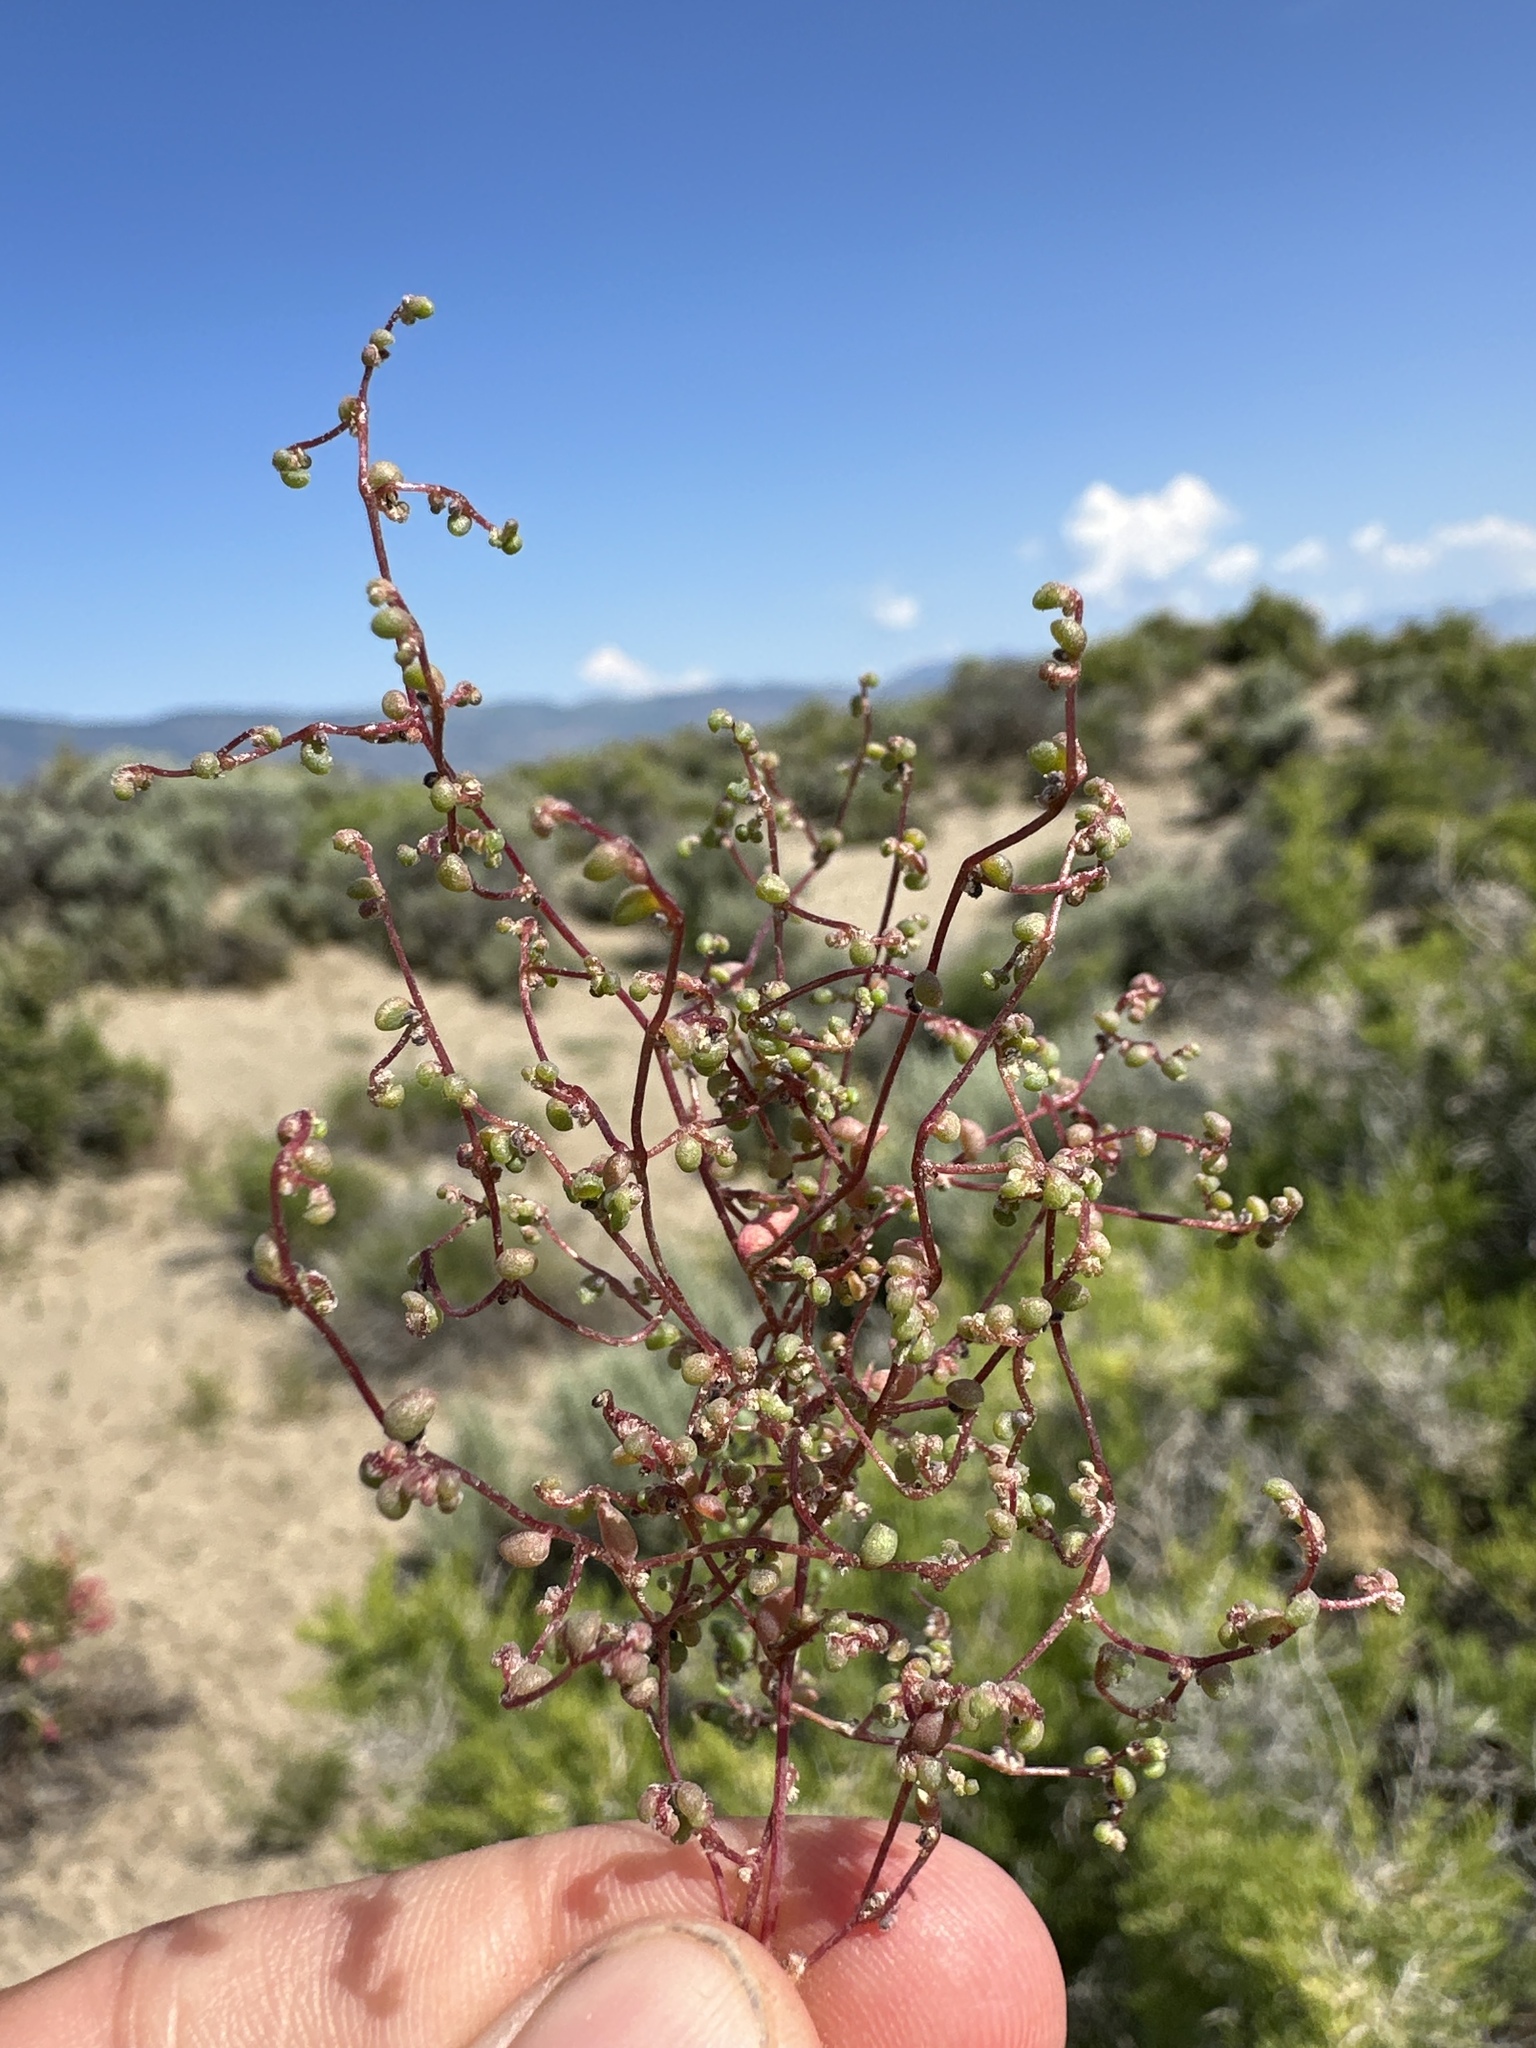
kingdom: Plantae
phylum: Tracheophyta
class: Magnoliopsida
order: Caryophyllales
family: Amaranthaceae
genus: Micromonolepis
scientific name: Micromonolepis pusilla
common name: Dwarf monolepis
